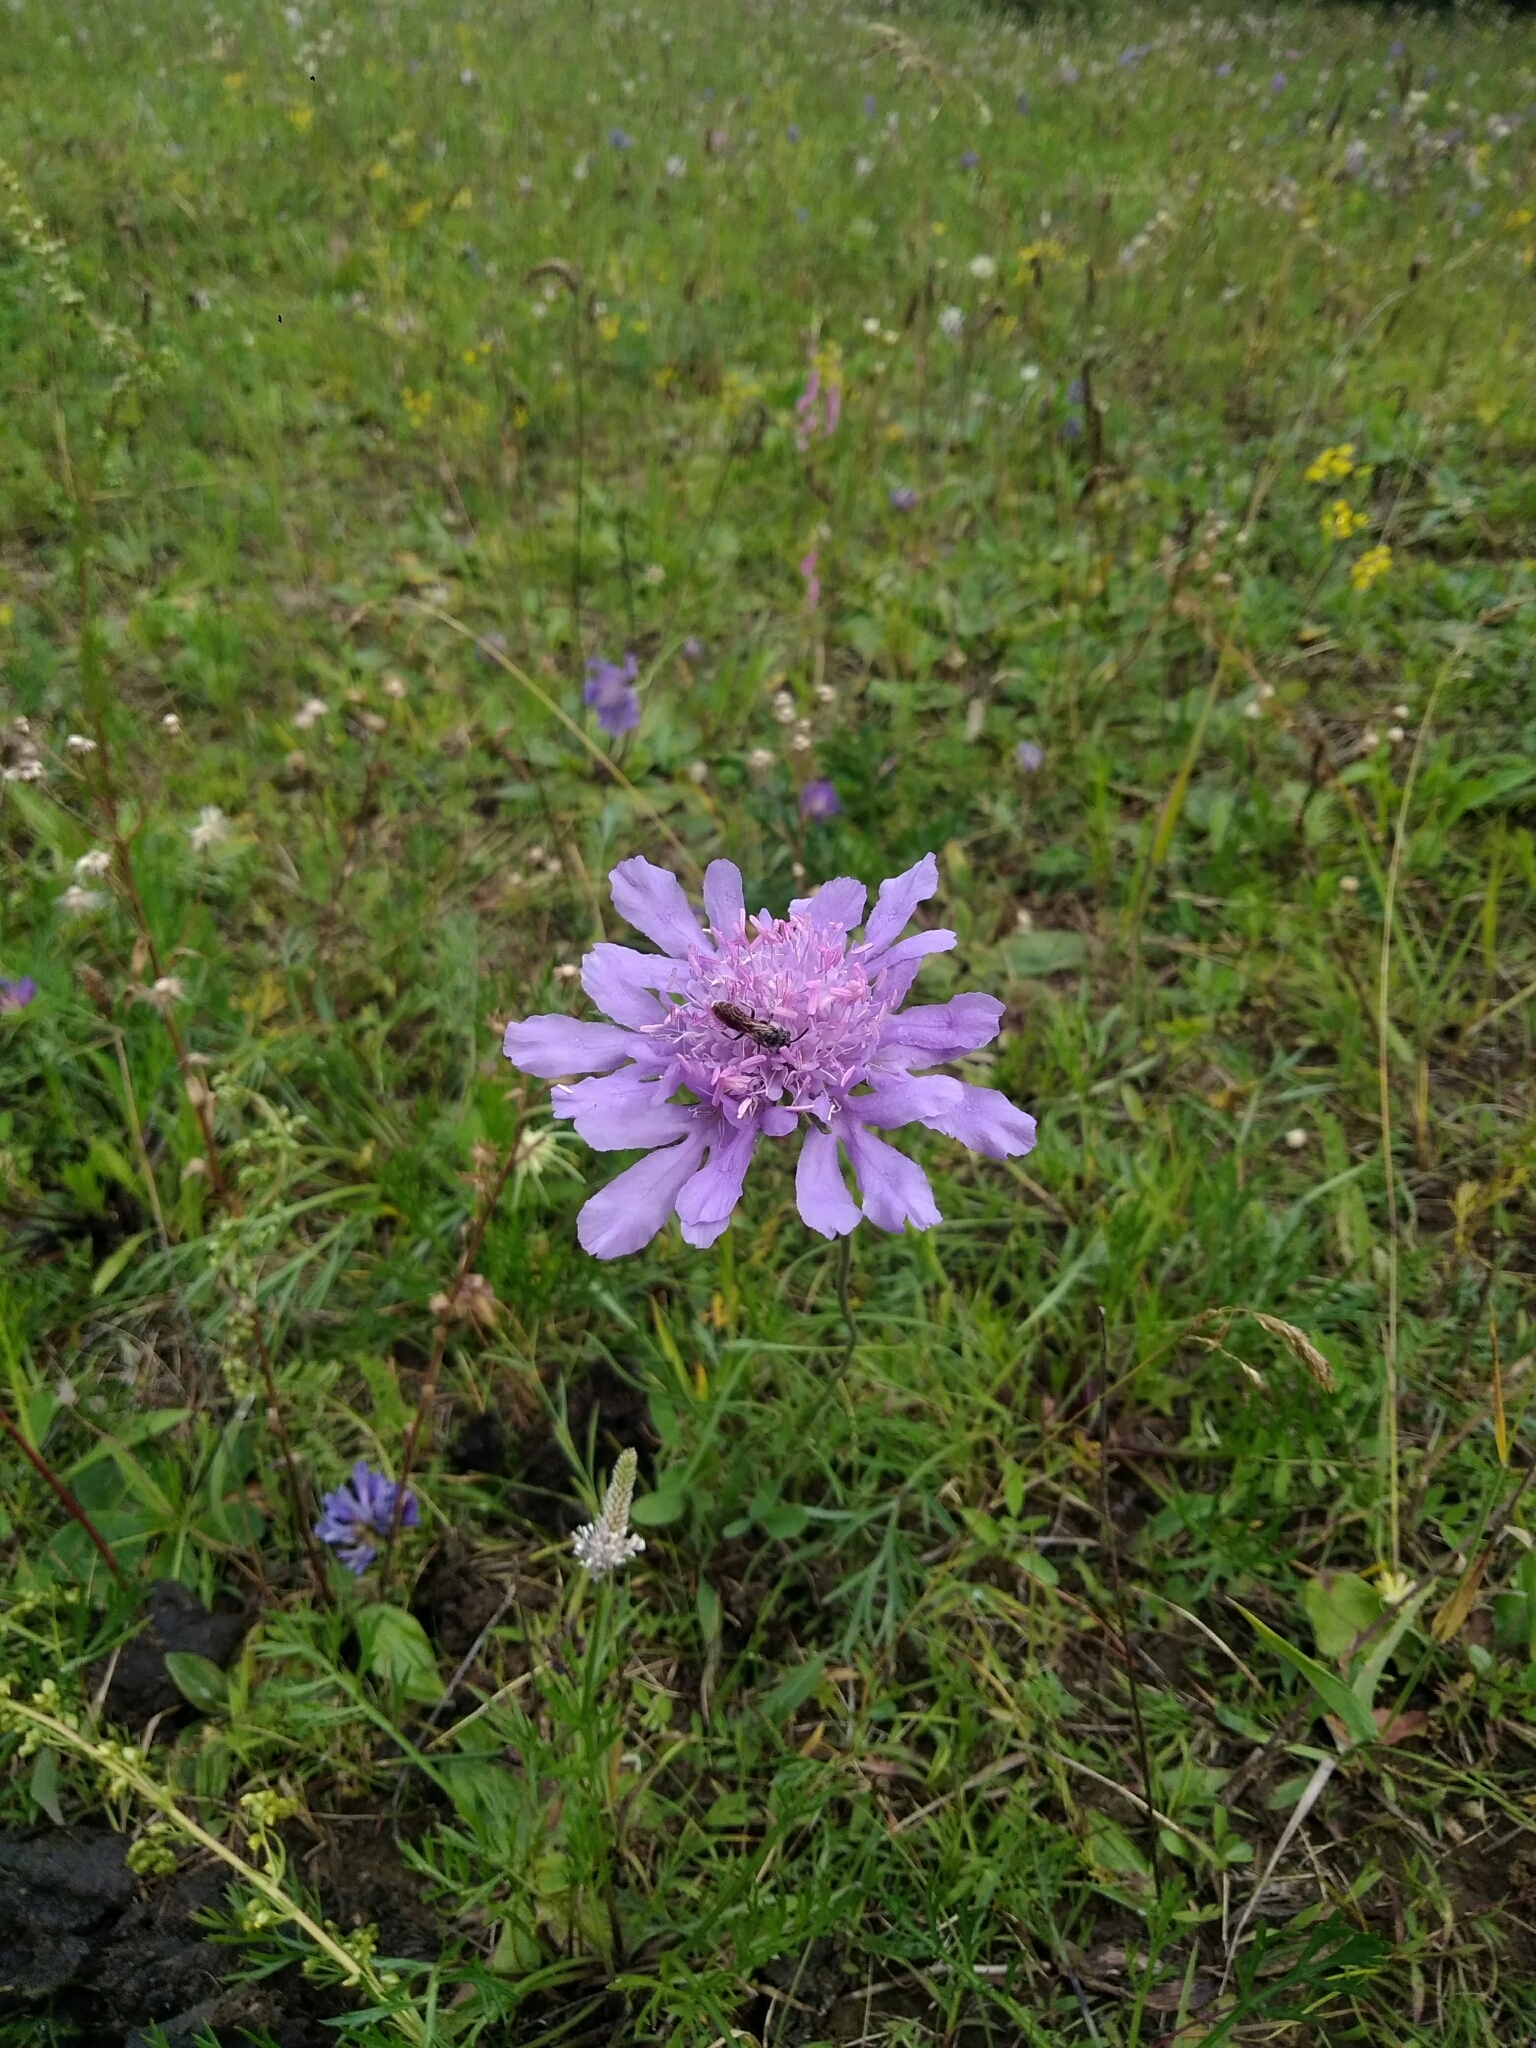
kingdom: Plantae
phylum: Tracheophyta
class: Magnoliopsida
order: Dipsacales
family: Caprifoliaceae
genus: Scabiosa
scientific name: Scabiosa comosa
